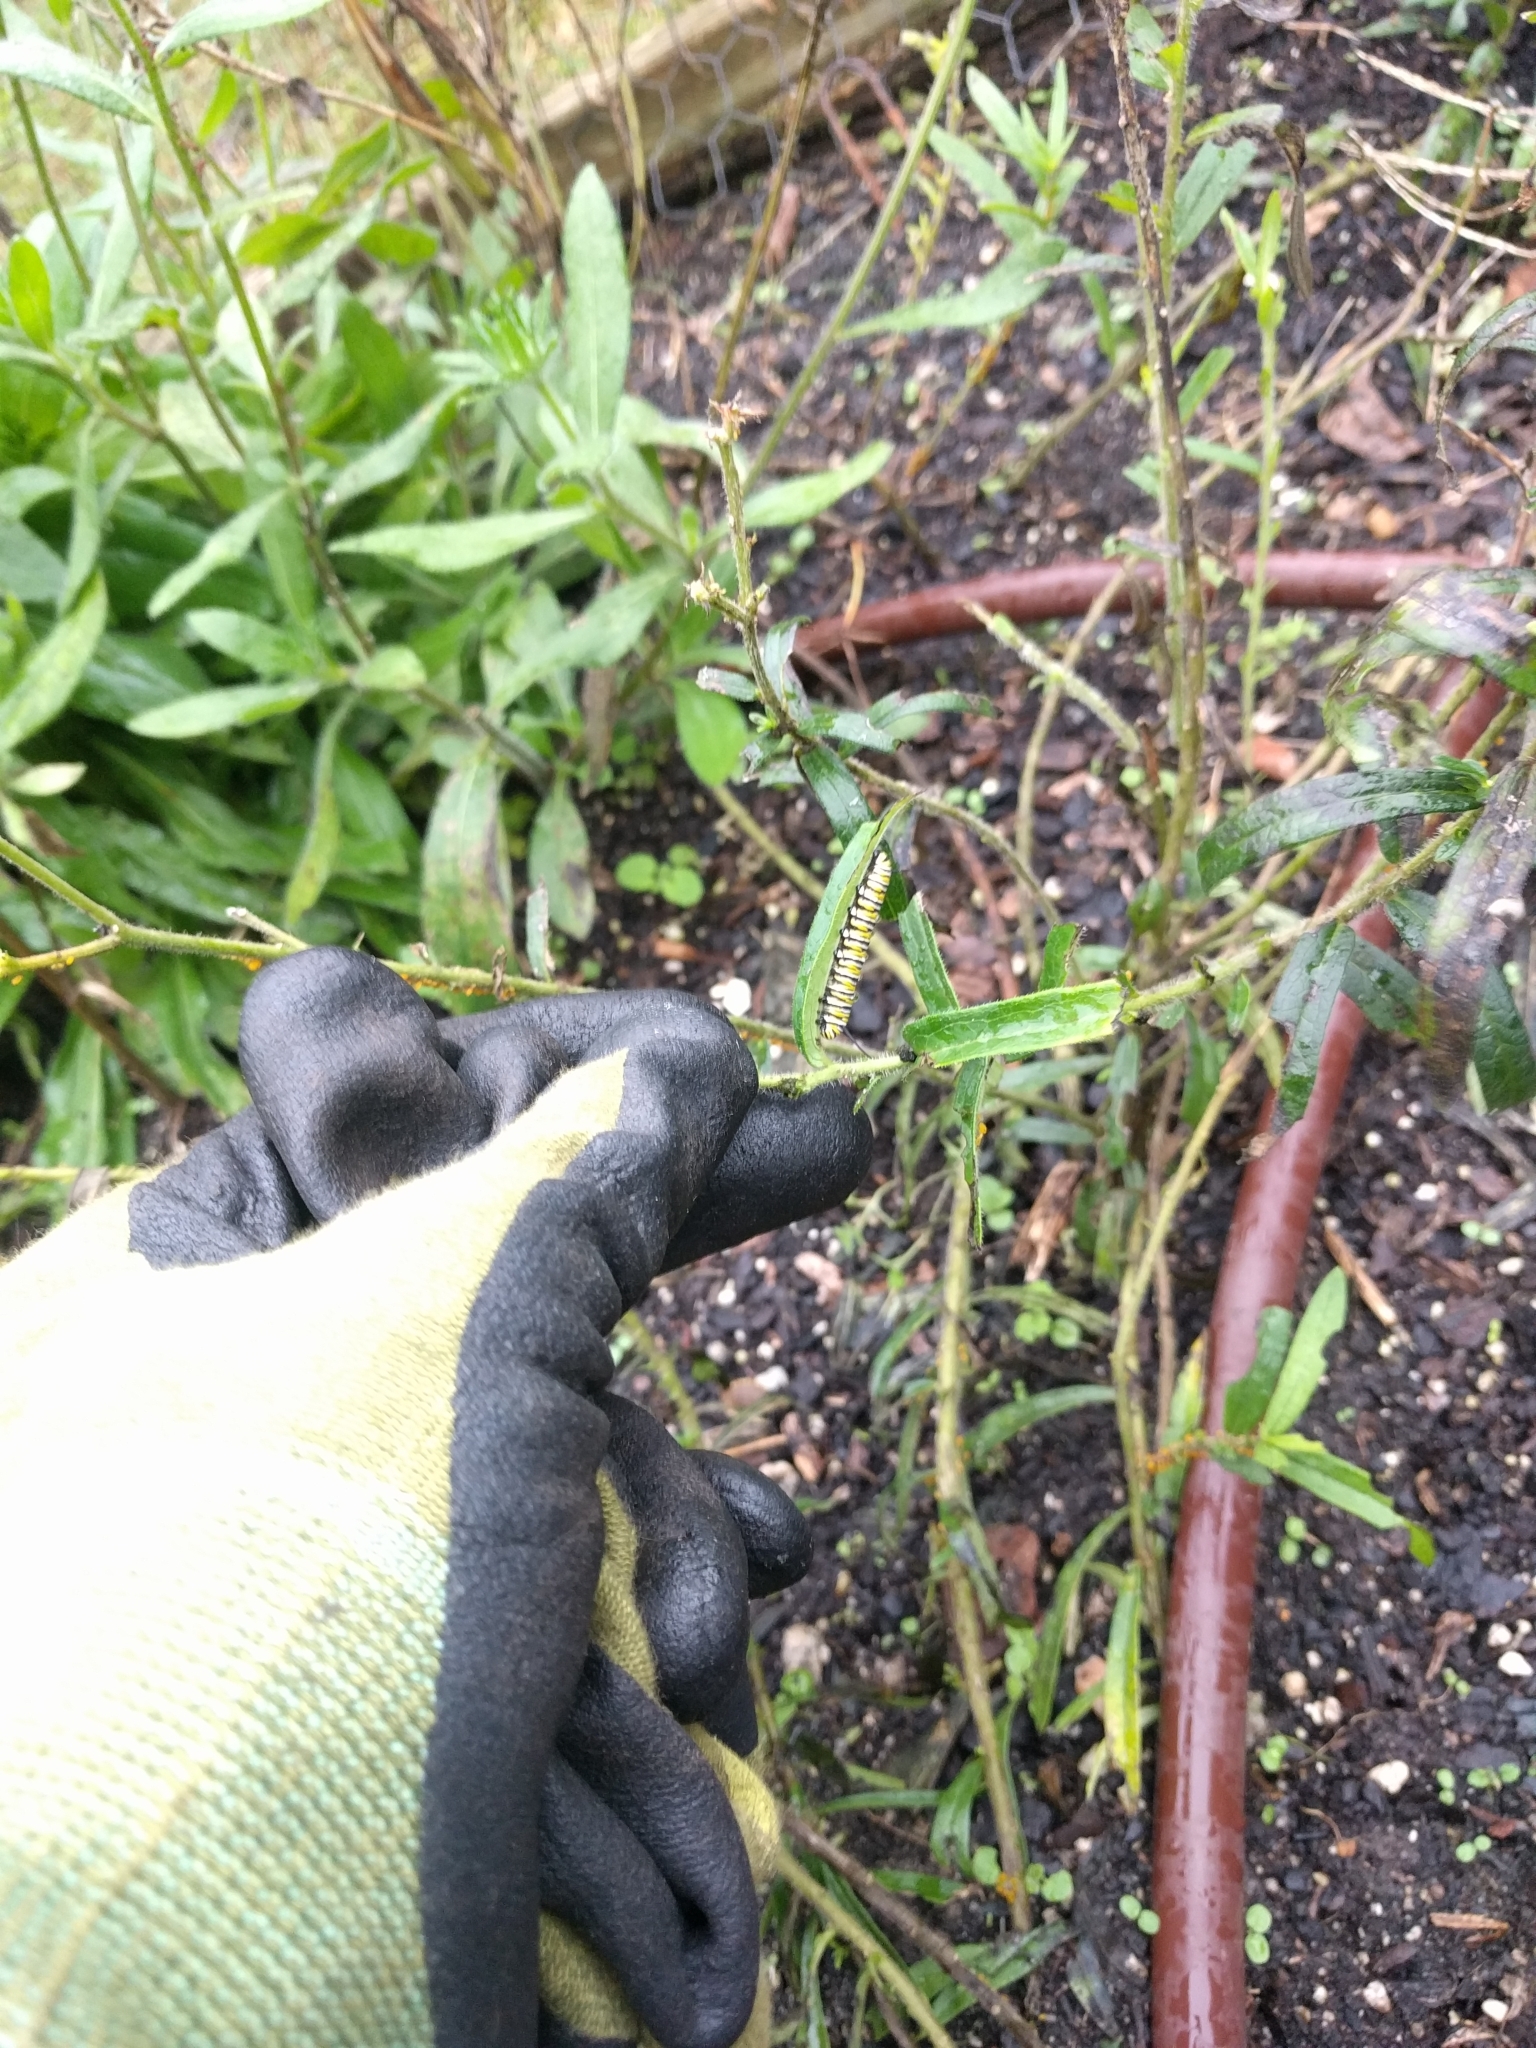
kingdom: Animalia
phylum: Arthropoda
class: Insecta
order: Lepidoptera
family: Nymphalidae
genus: Danaus
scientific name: Danaus plexippus
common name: Monarch
